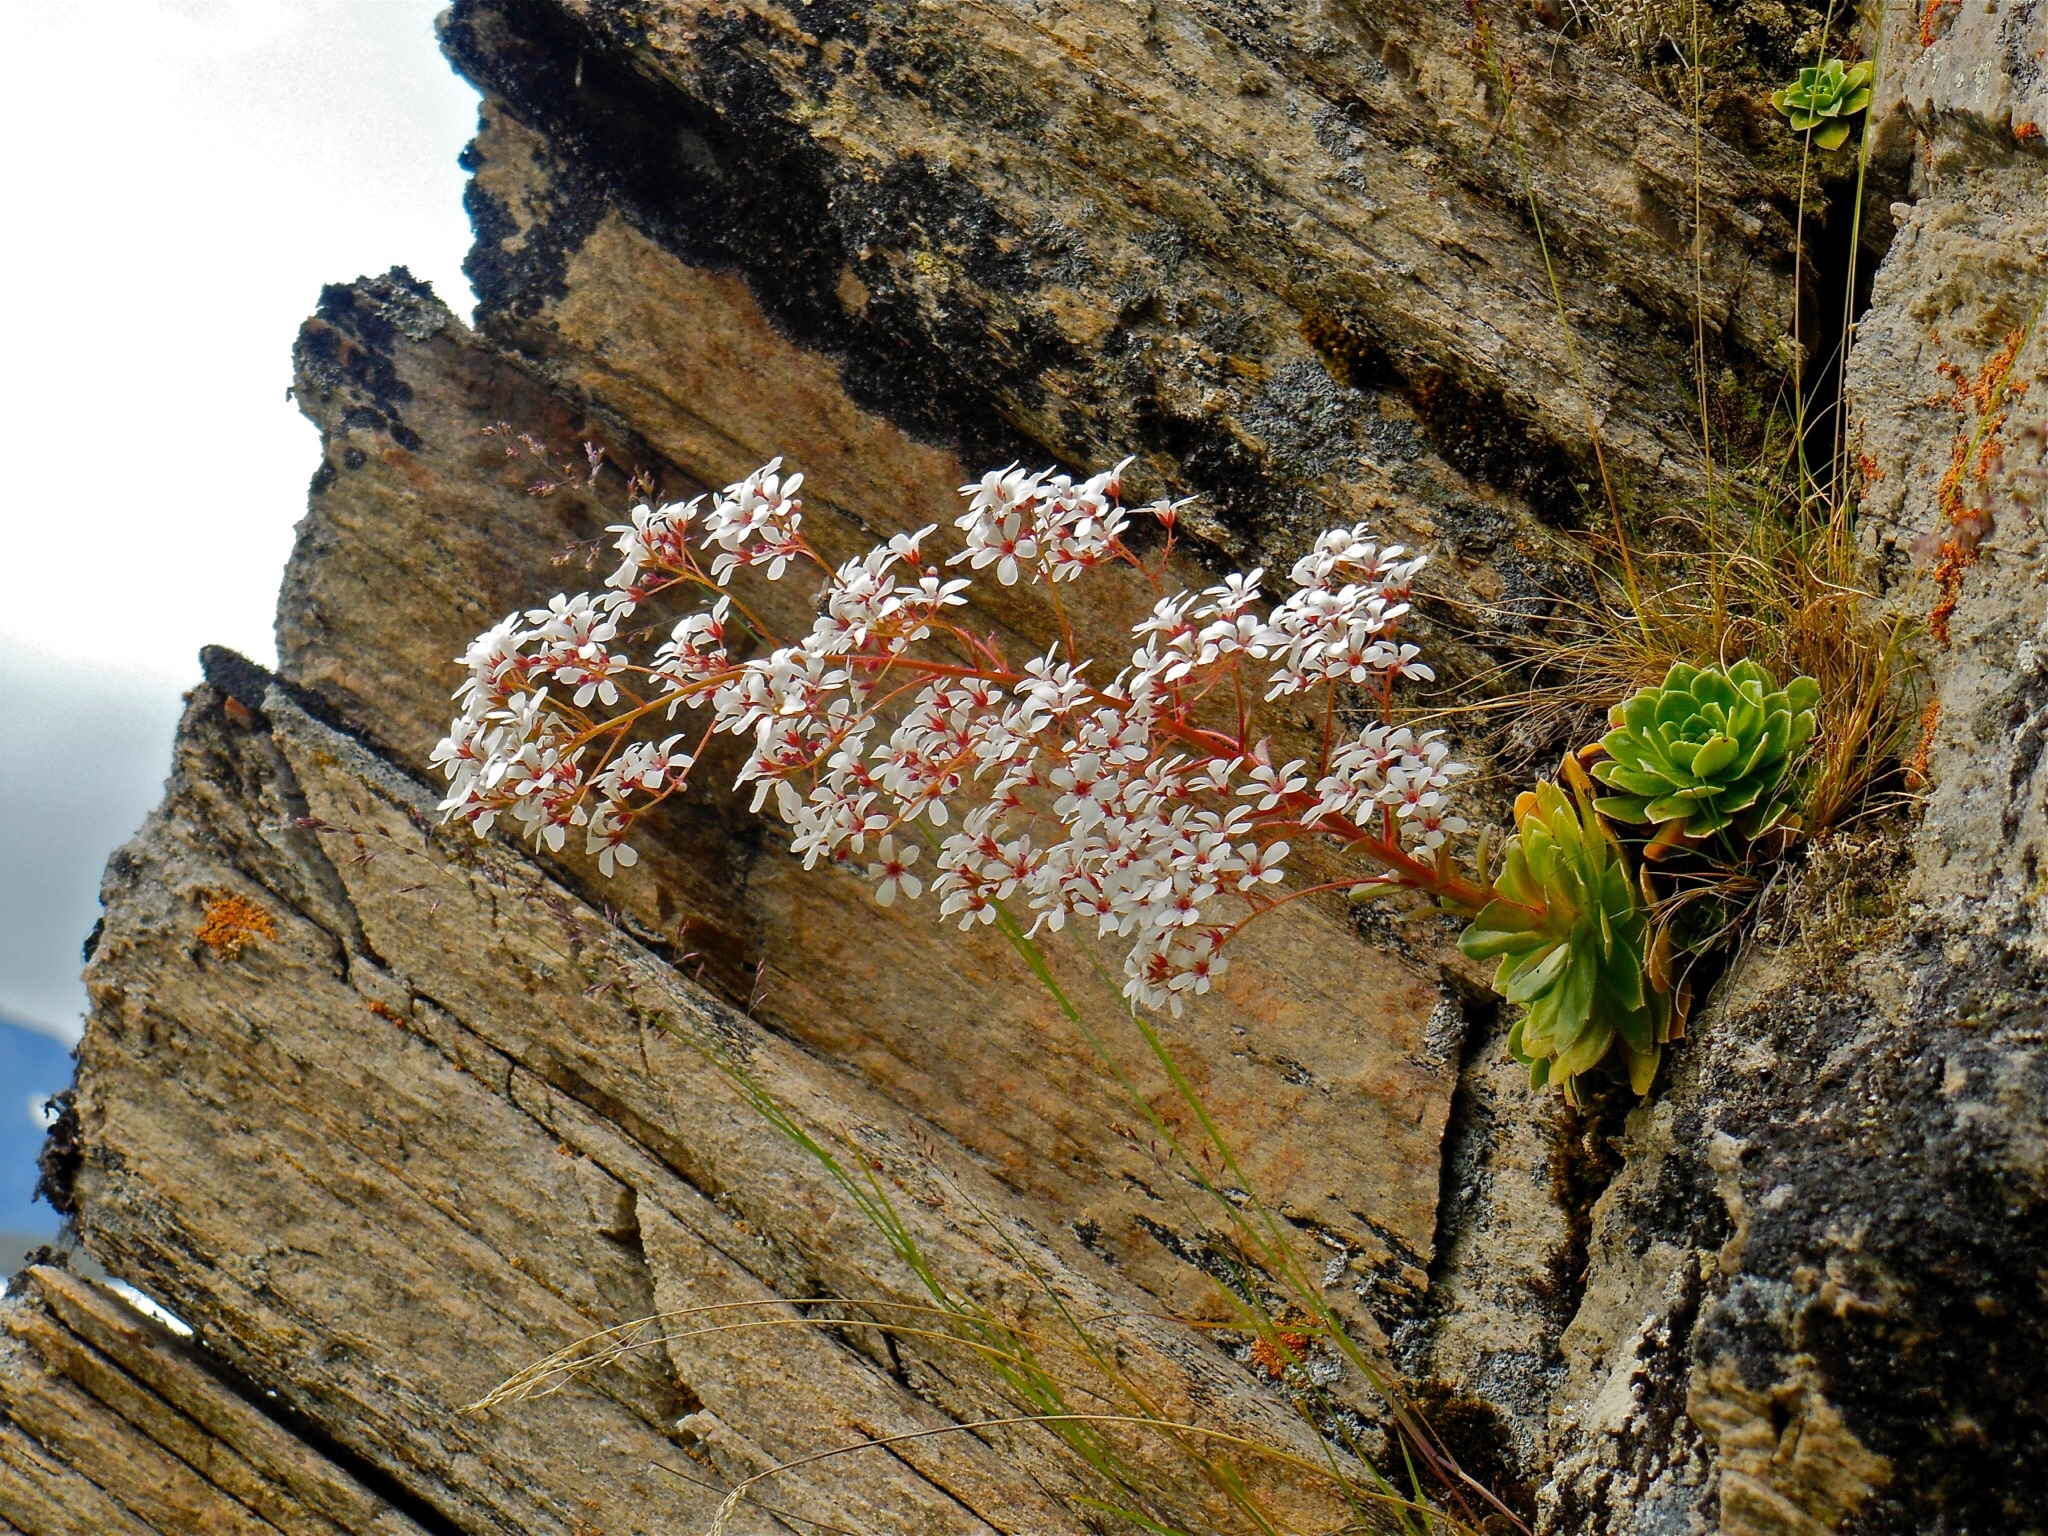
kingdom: Plantae
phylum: Tracheophyta
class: Magnoliopsida
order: Saxifragales
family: Saxifragaceae
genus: Saxifraga
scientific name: Saxifraga cotyledon
